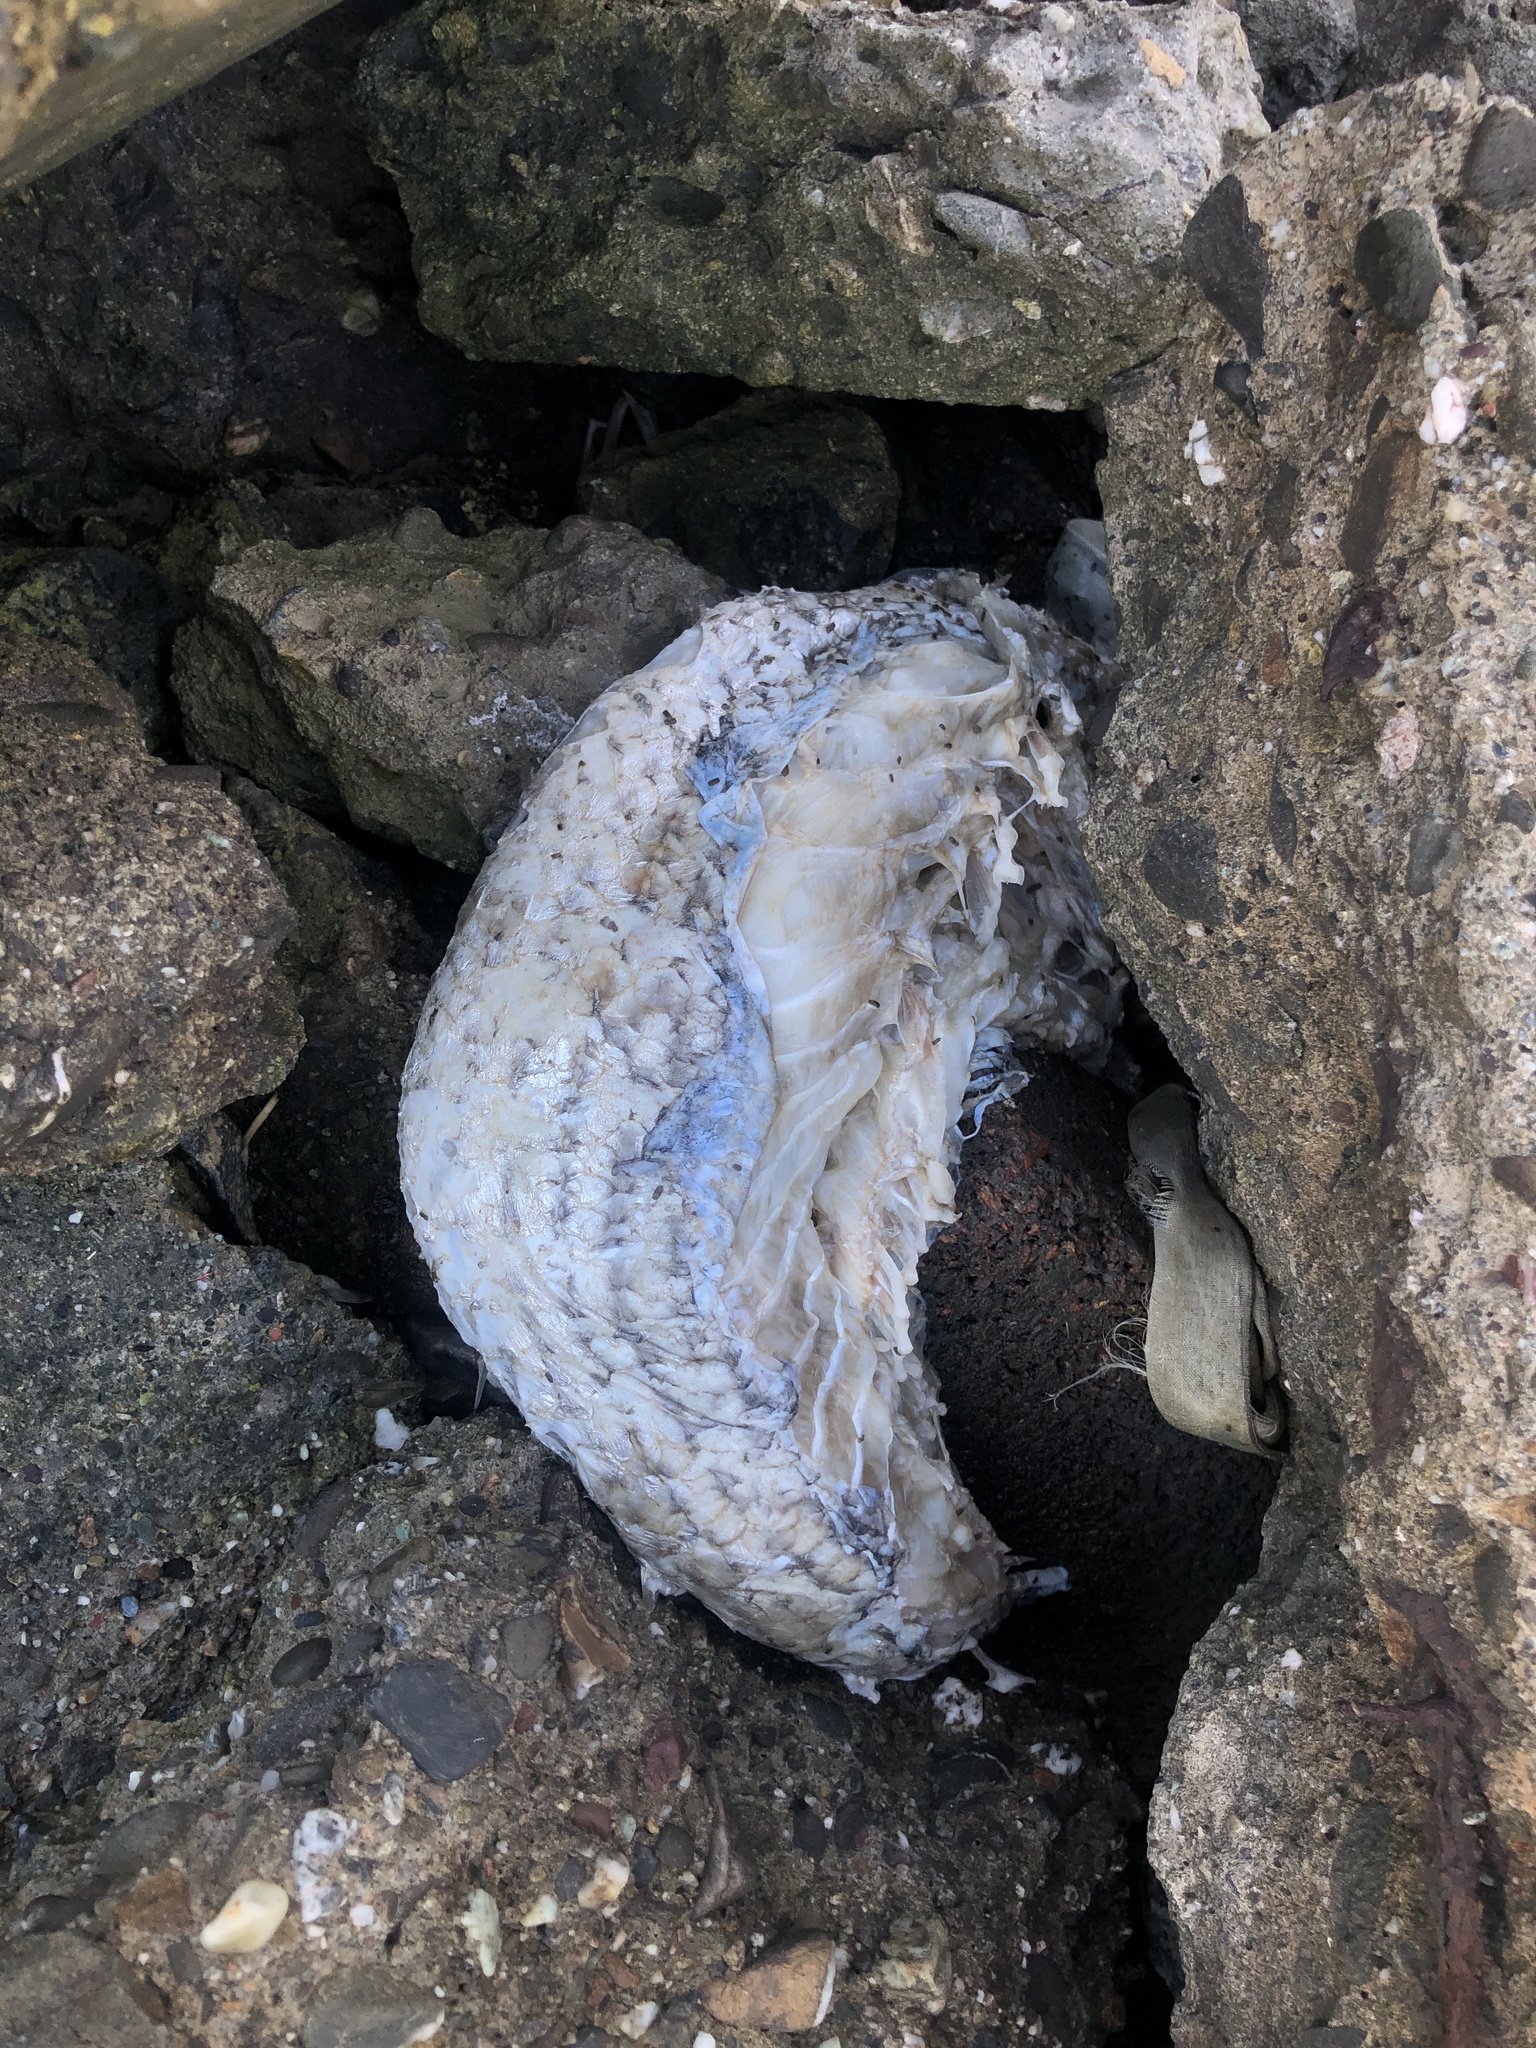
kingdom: Animalia
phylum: Chordata
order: Perciformes
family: Moronidae
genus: Morone
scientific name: Morone saxatilis
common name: Striped bass
